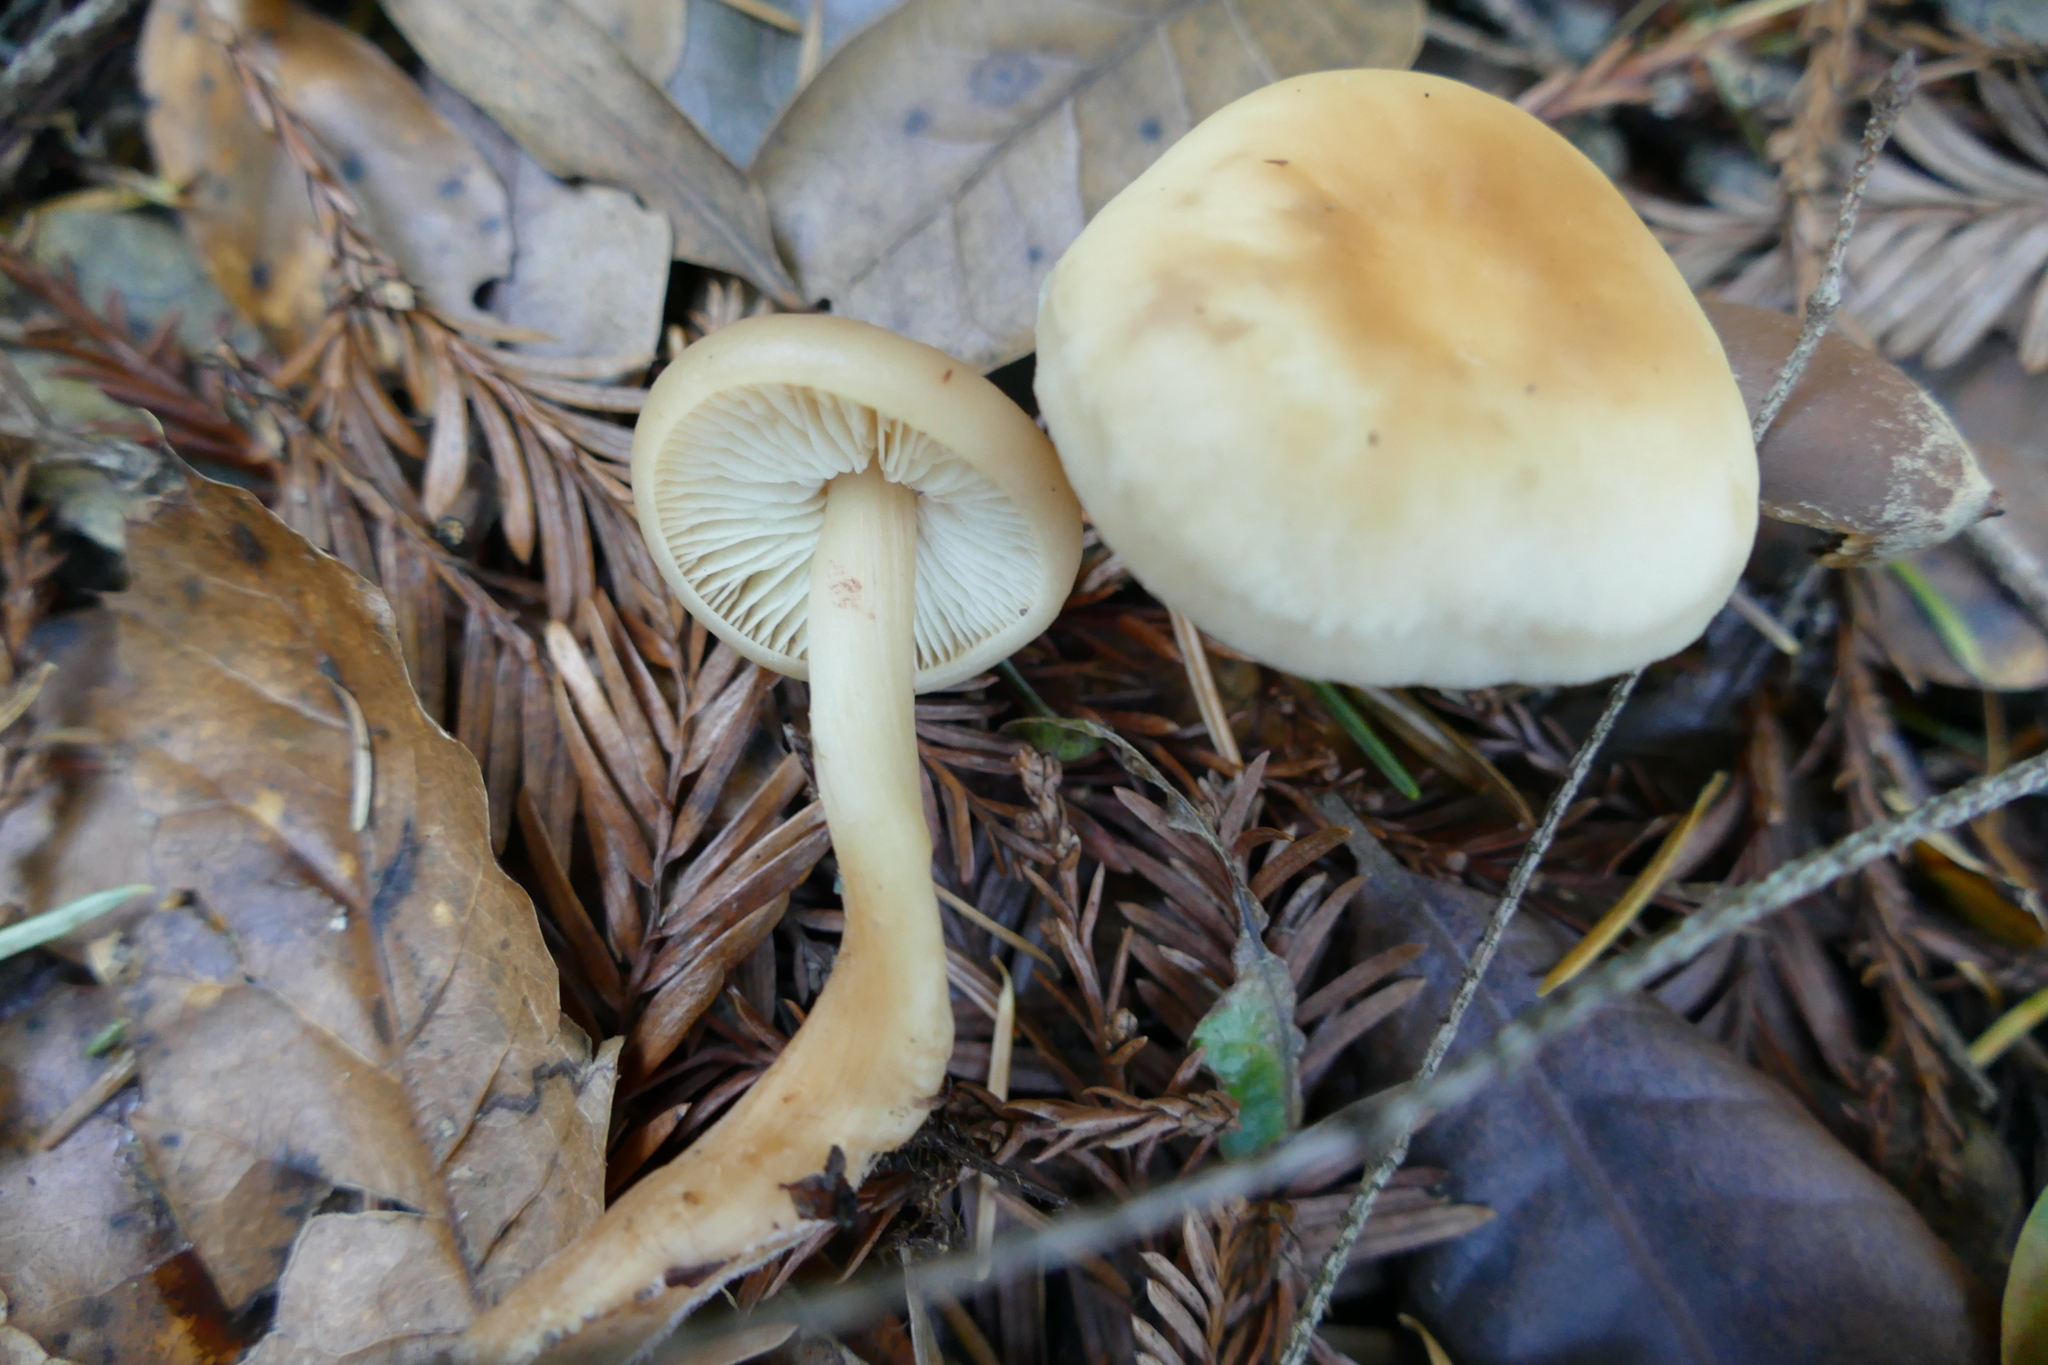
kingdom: Fungi
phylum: Basidiomycota
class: Agaricomycetes
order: Agaricales
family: Omphalotaceae
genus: Gymnopus
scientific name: Gymnopus dryophilus
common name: Penny top
